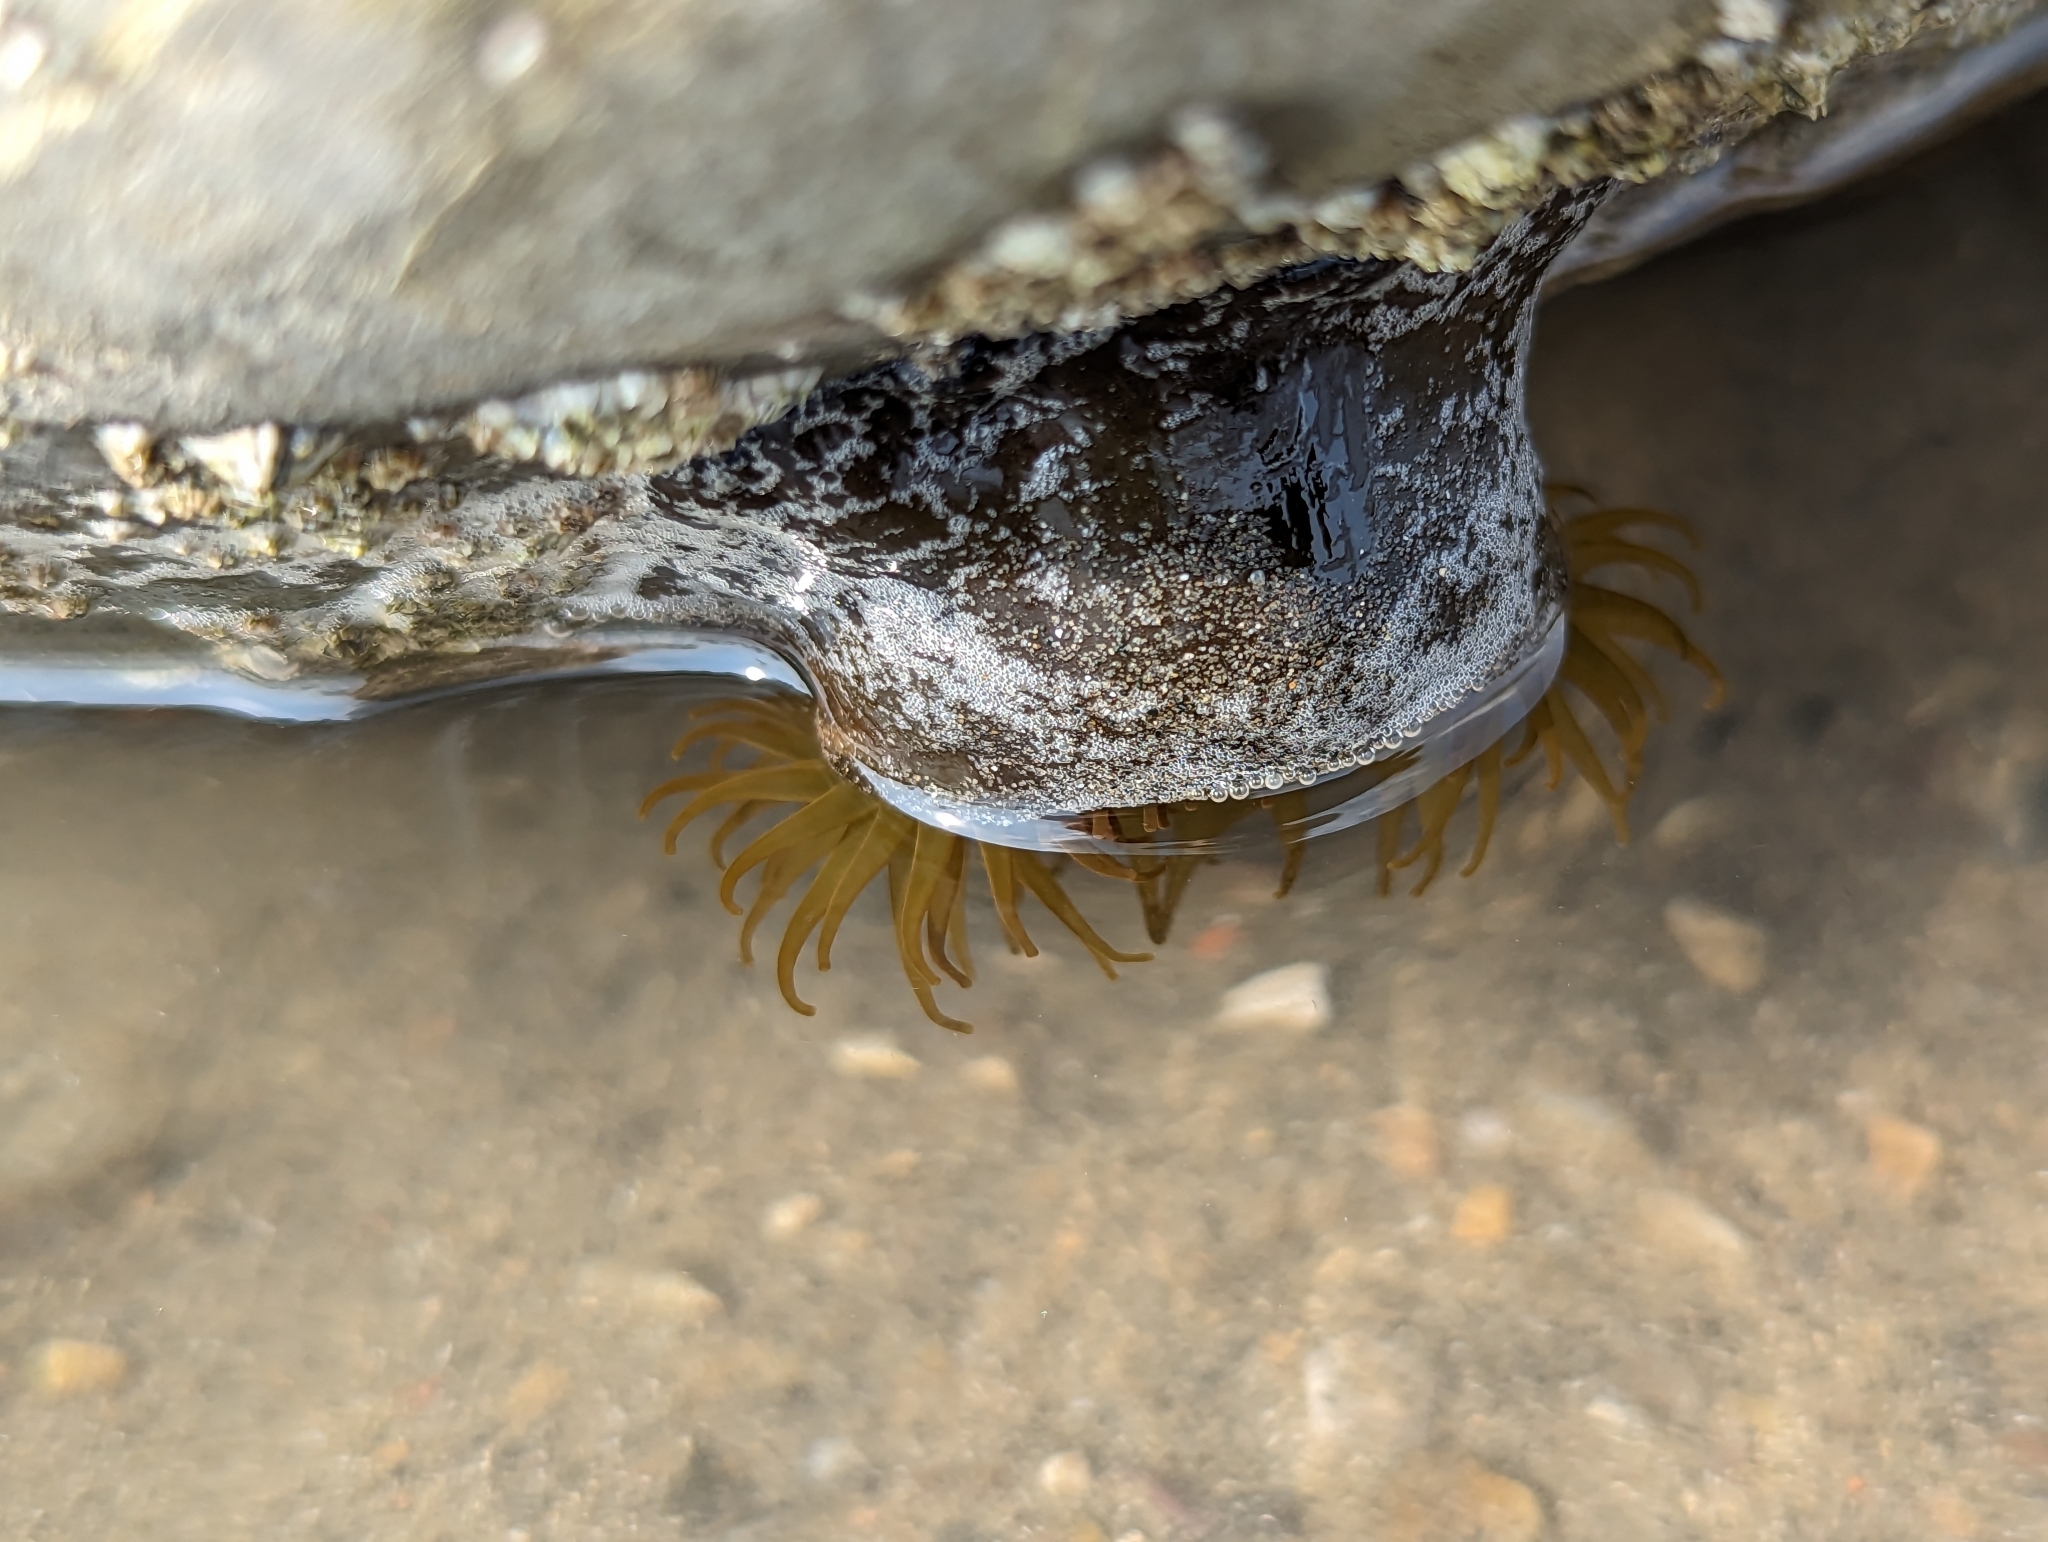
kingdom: Animalia
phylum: Cnidaria
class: Anthozoa
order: Actiniaria
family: Actiniidae
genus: Actinia
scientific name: Actinia equina
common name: Beadlet anemone
